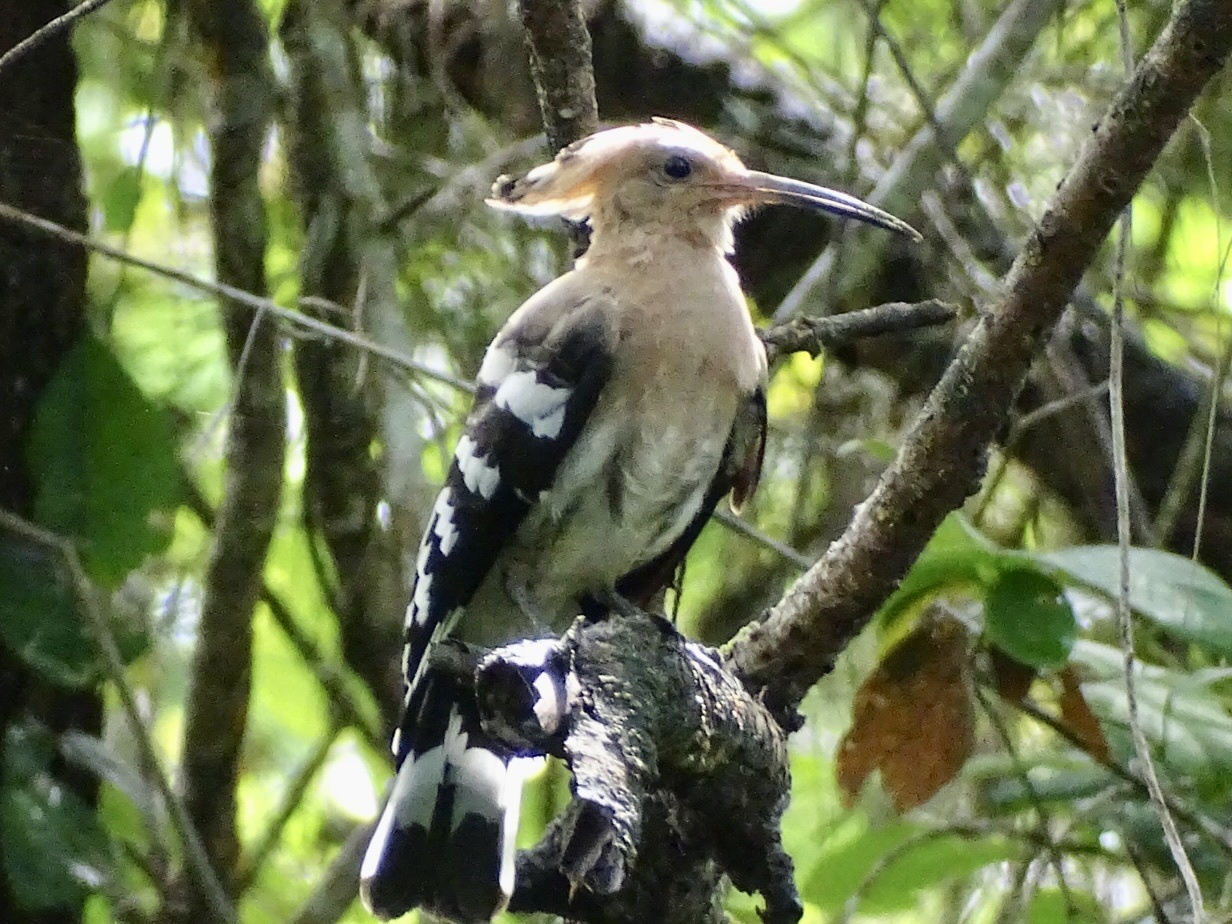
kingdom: Animalia
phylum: Chordata
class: Aves
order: Bucerotiformes
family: Upupidae
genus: Upupa
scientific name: Upupa epops
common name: Eurasian hoopoe
